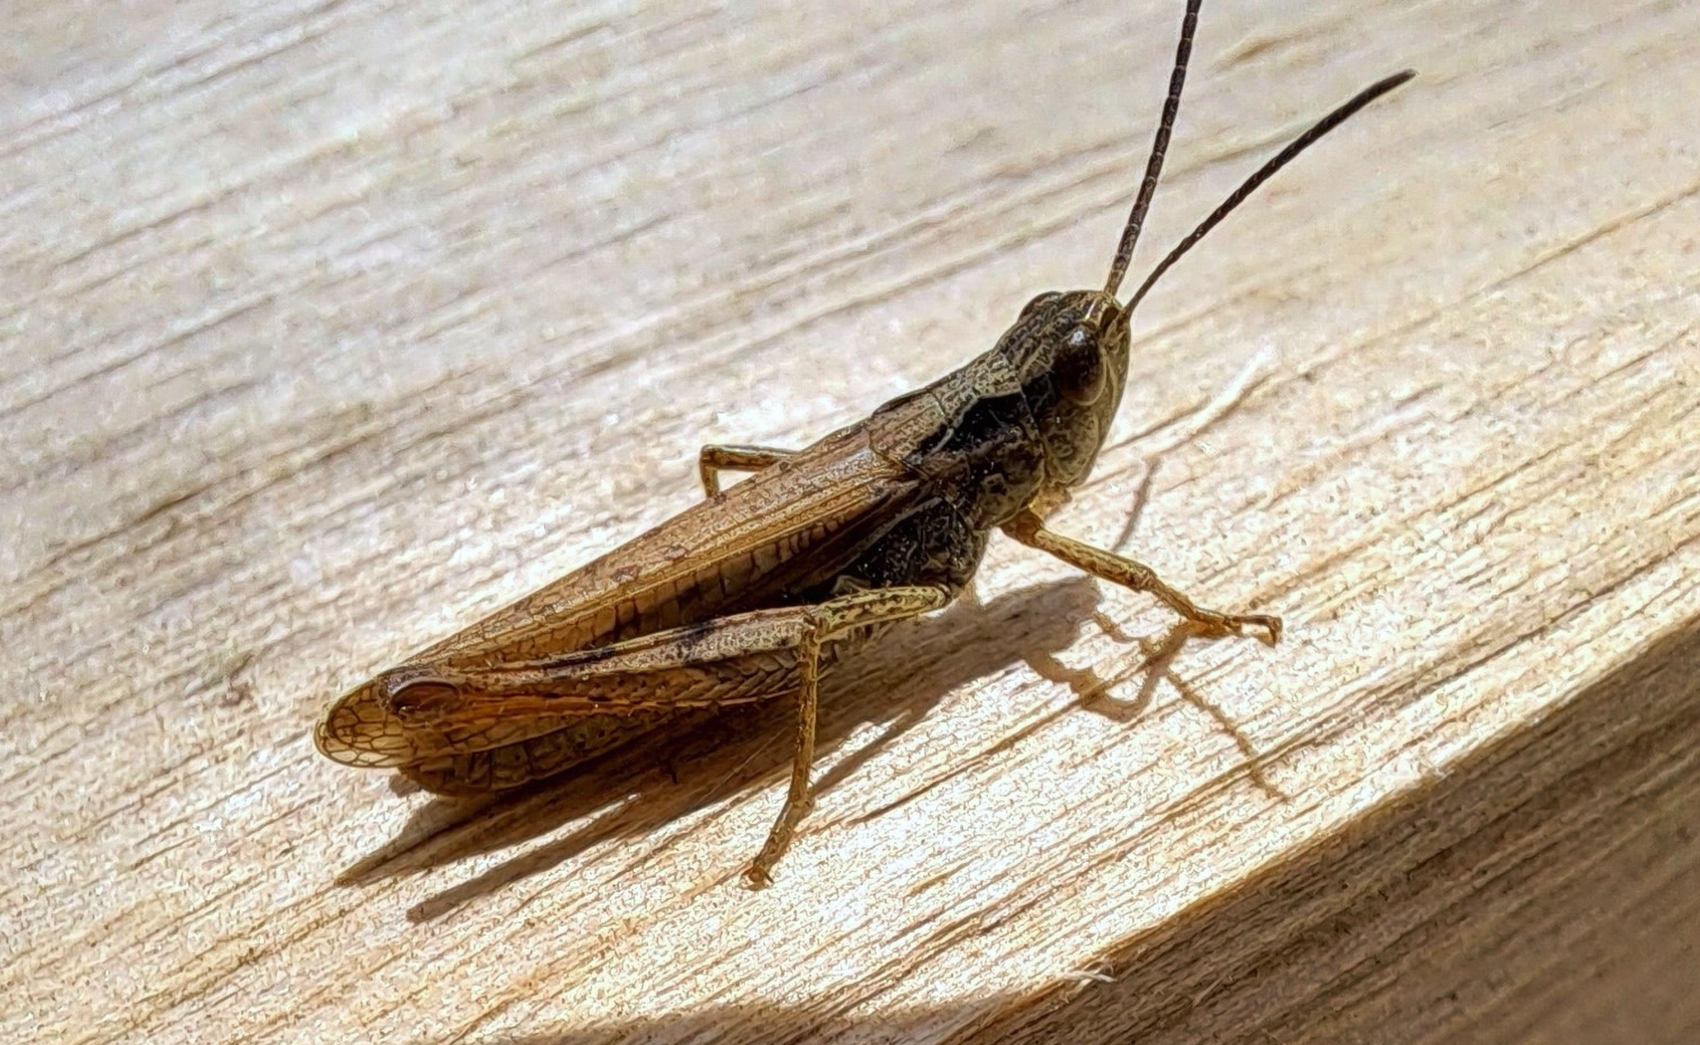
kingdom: Animalia
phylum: Arthropoda
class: Insecta
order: Orthoptera
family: Acrididae
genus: Chorthippus
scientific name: Chorthippus apricarius
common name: Upland field grasshopper
